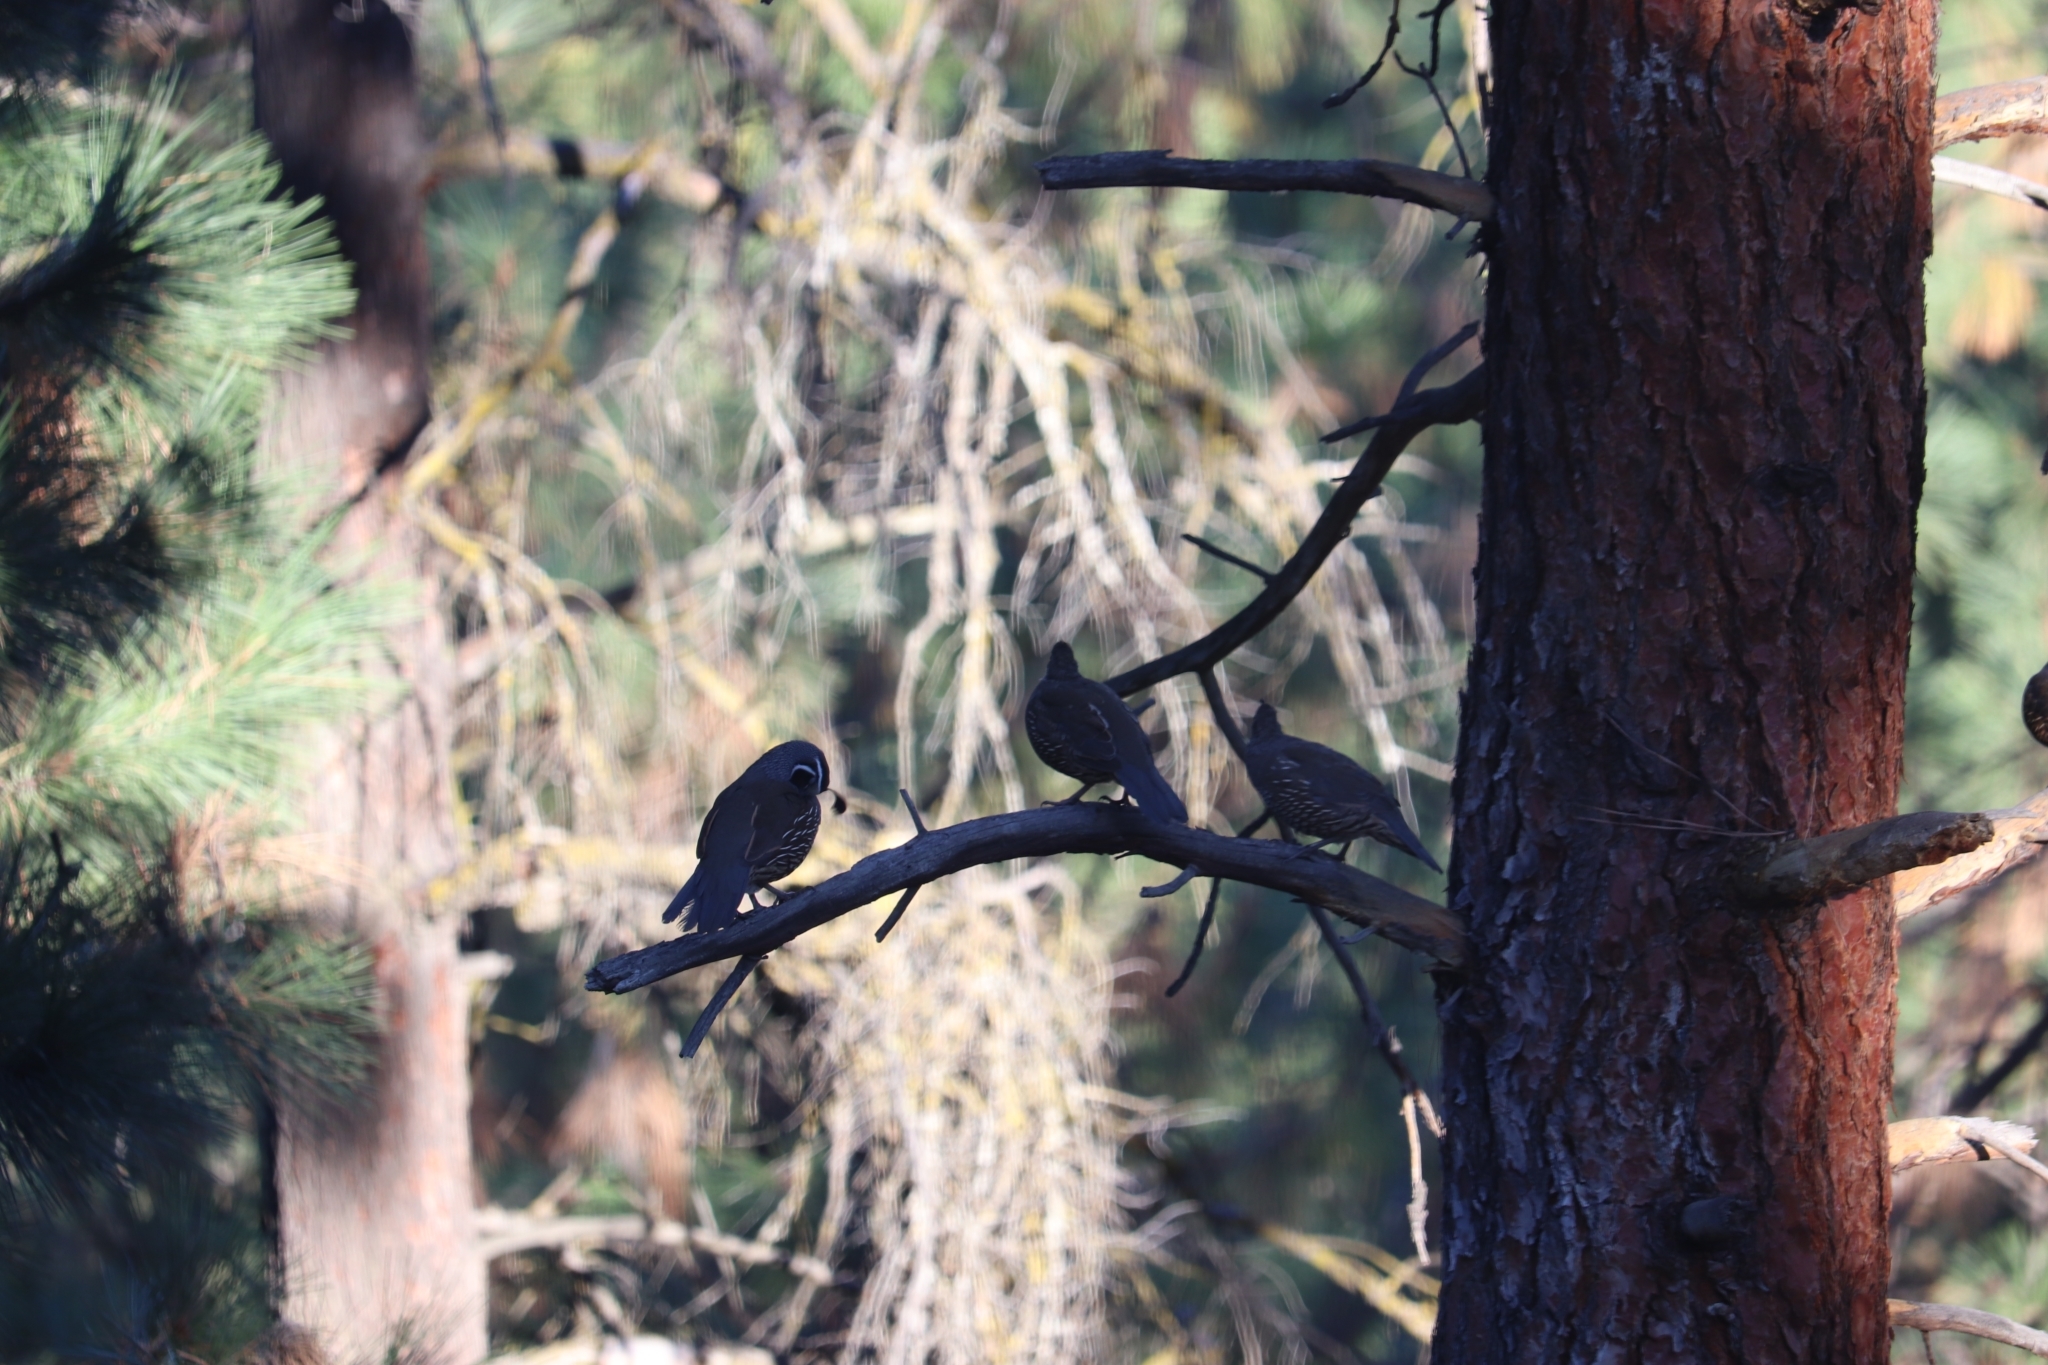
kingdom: Animalia
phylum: Chordata
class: Aves
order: Galliformes
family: Odontophoridae
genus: Callipepla
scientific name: Callipepla californica
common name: California quail
